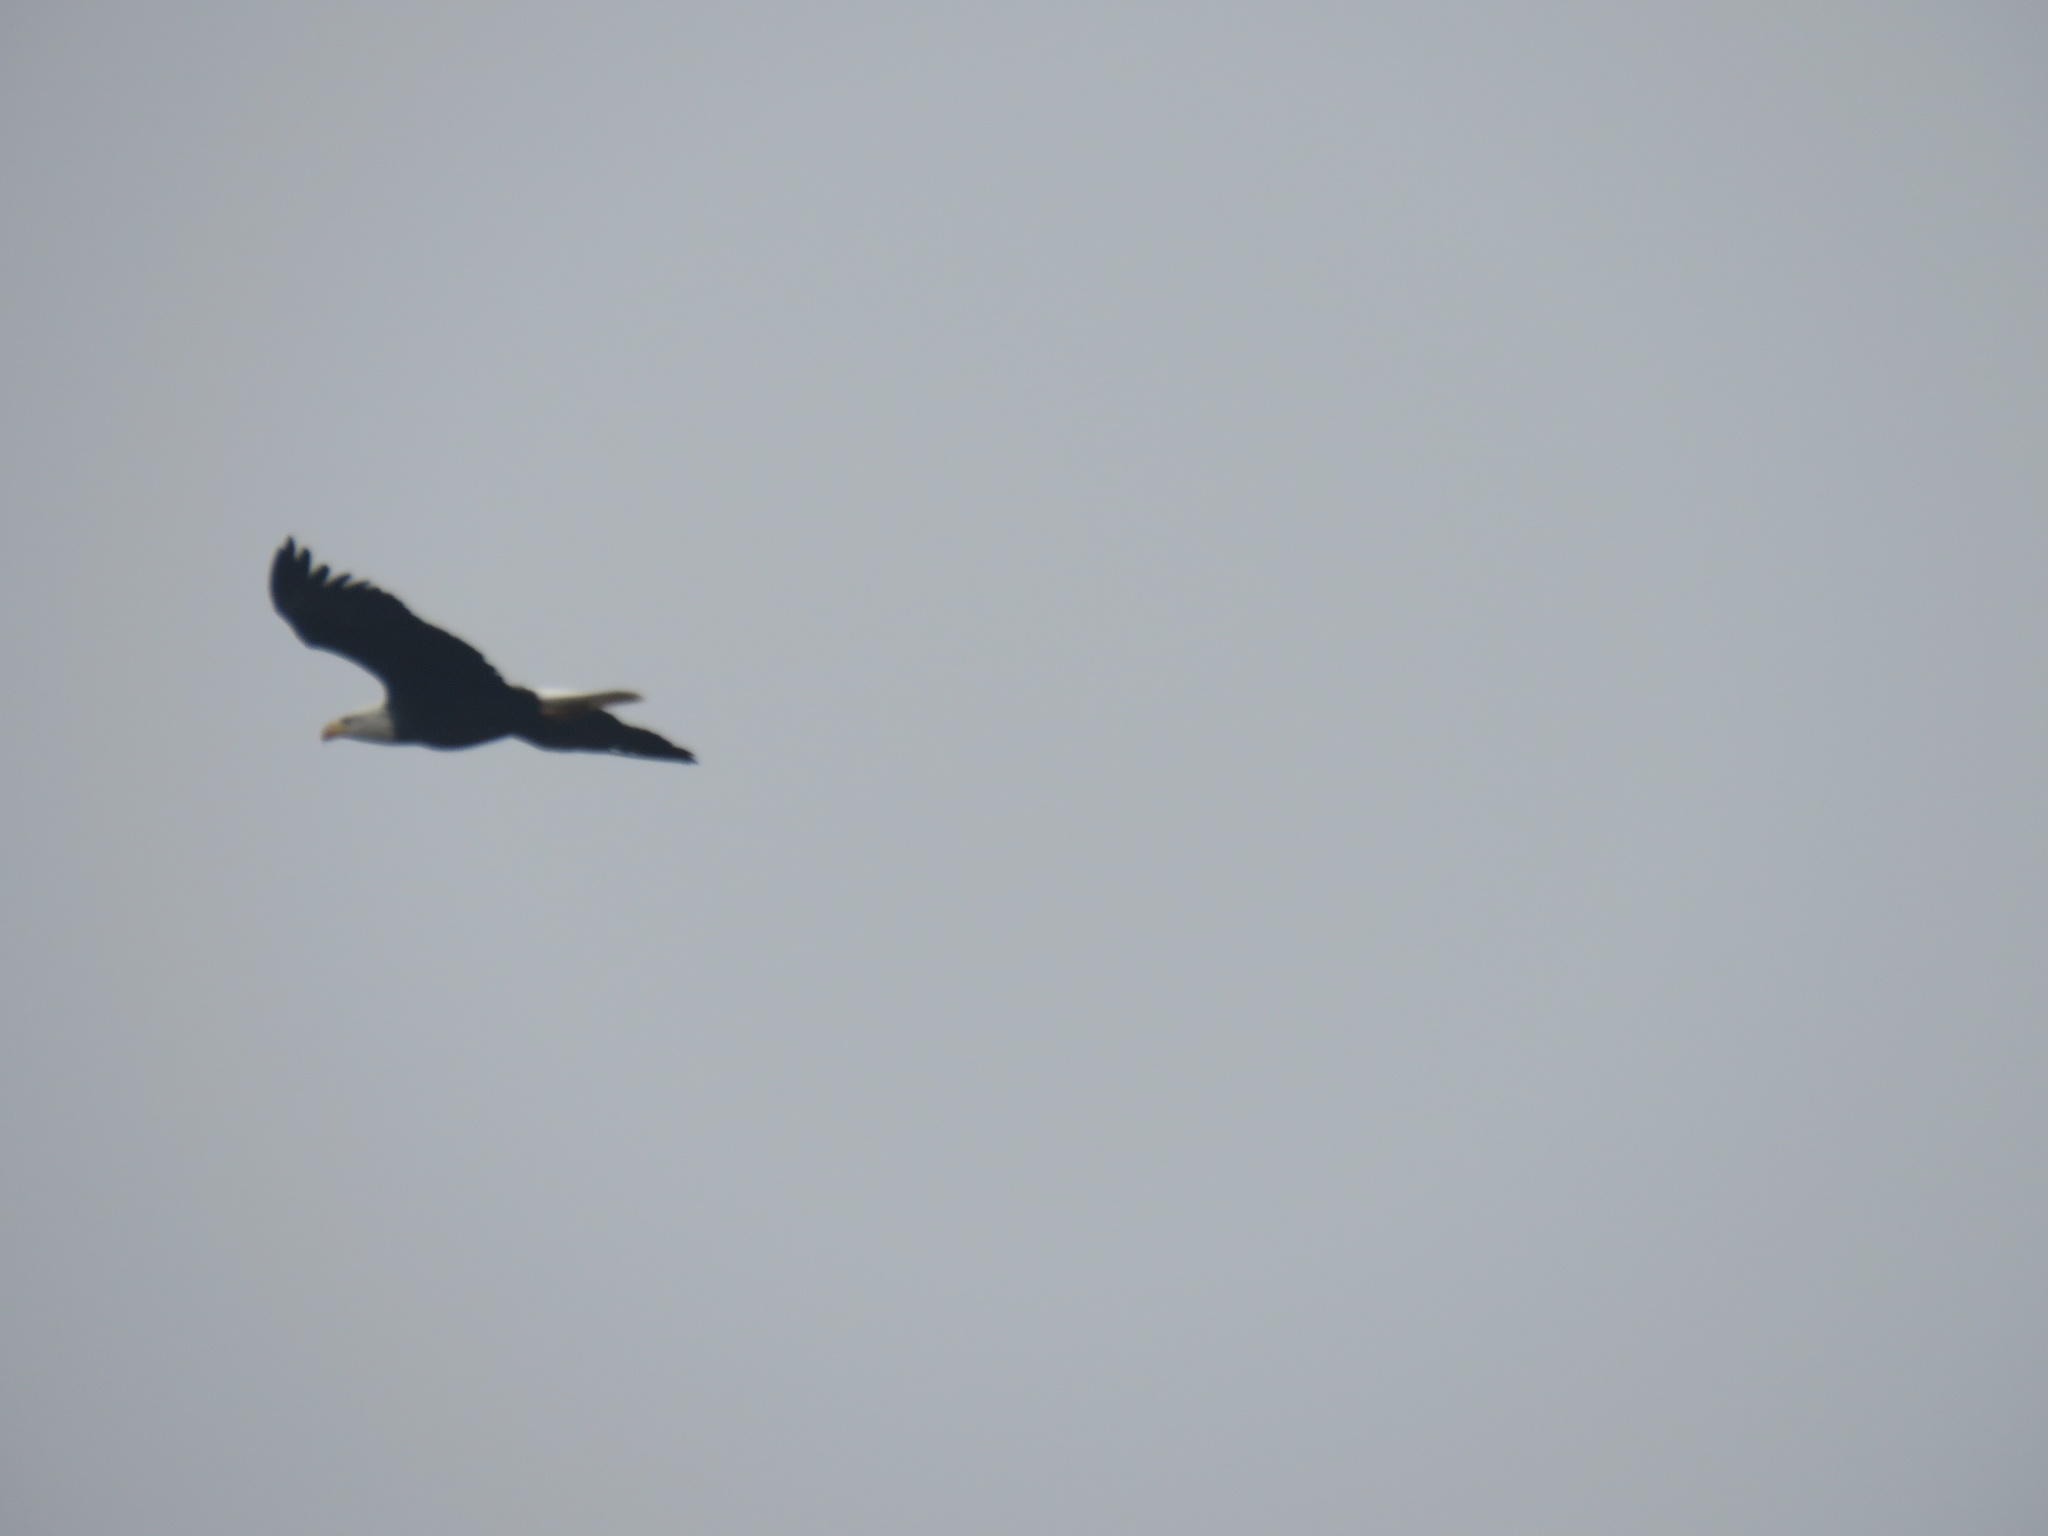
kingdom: Animalia
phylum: Chordata
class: Aves
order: Accipitriformes
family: Accipitridae
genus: Haliaeetus
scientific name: Haliaeetus leucocephalus
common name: Bald eagle
